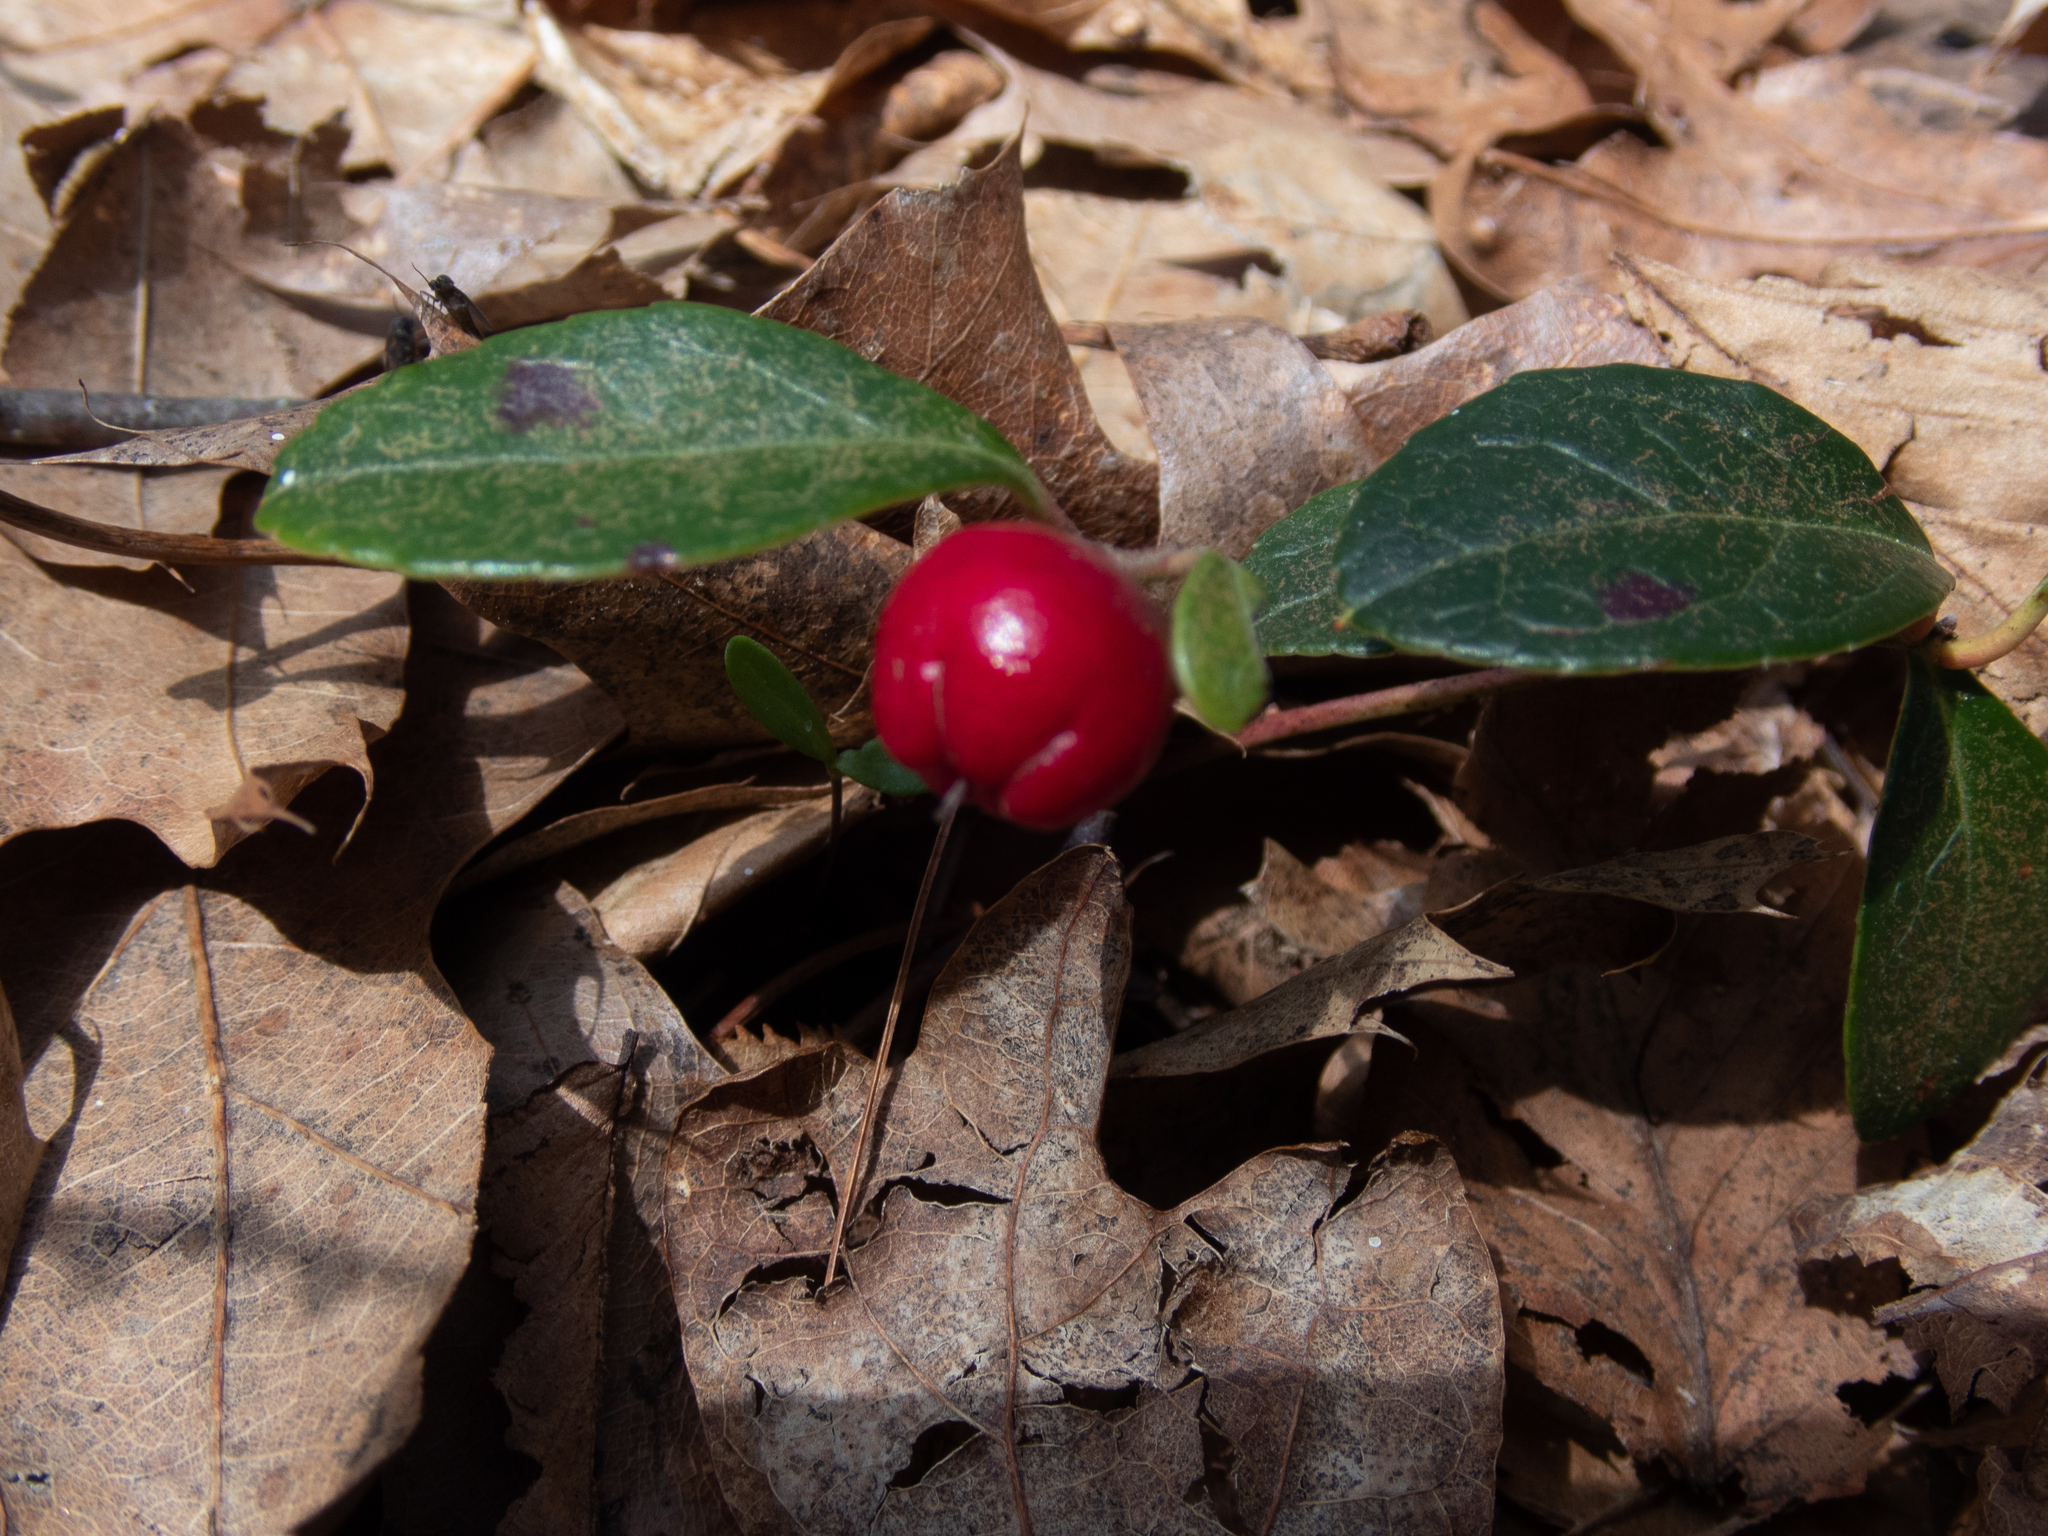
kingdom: Plantae
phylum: Tracheophyta
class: Magnoliopsida
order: Gentianales
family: Rubiaceae
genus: Mitchella
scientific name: Mitchella repens
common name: Partridge-berry
